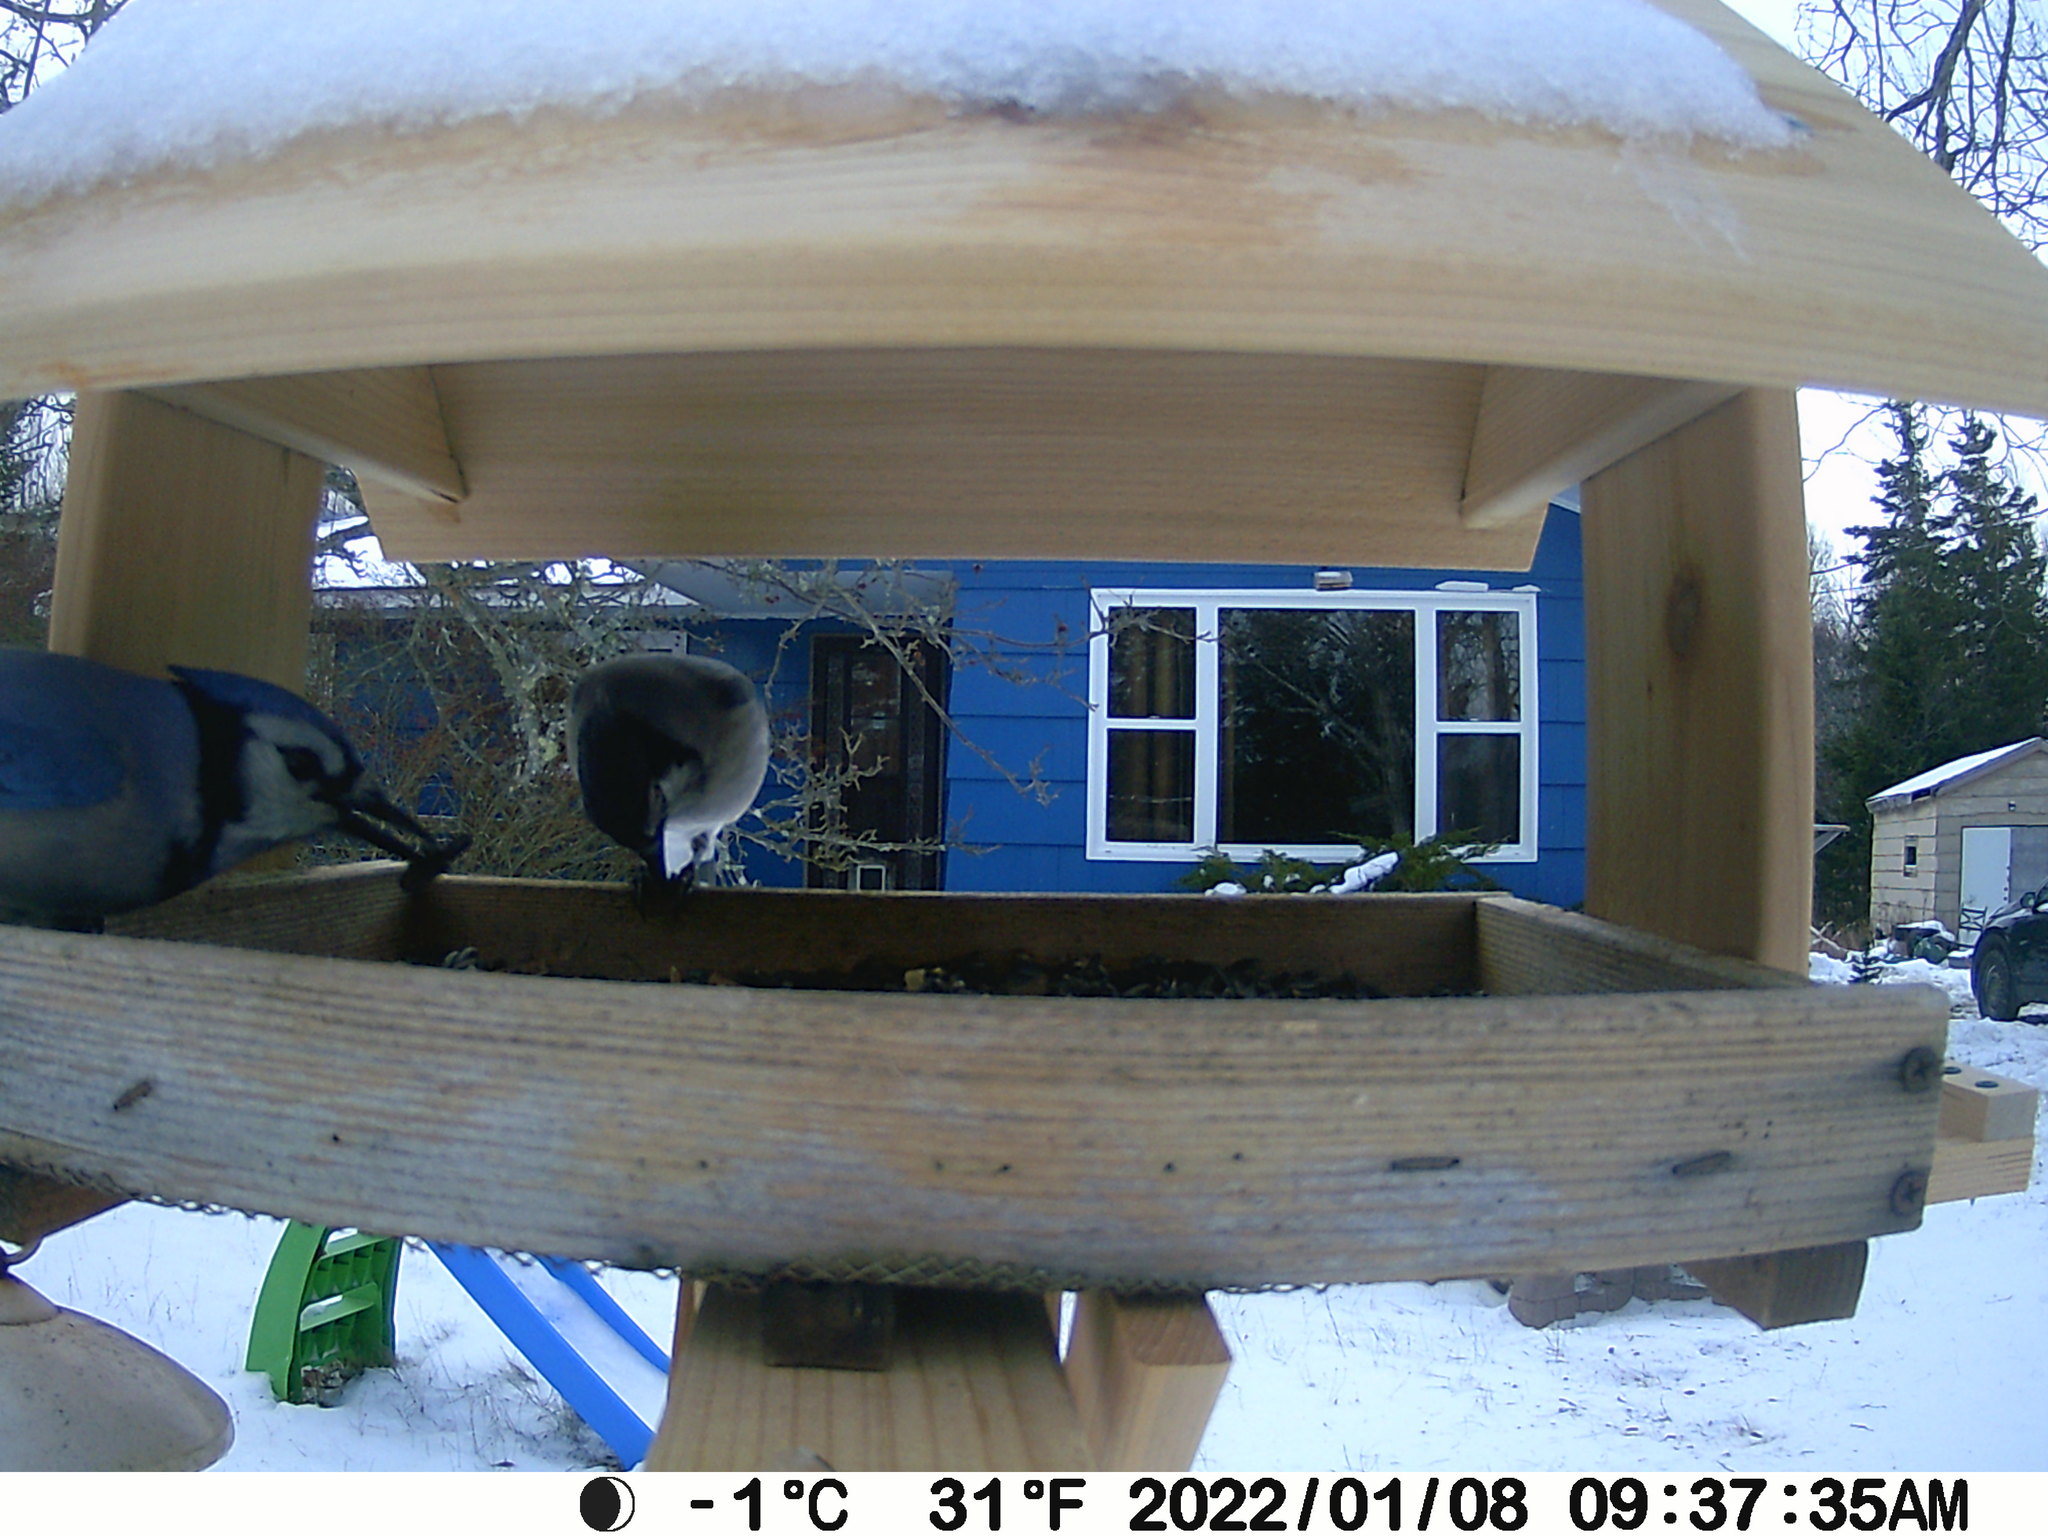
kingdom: Animalia
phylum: Chordata
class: Aves
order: Passeriformes
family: Corvidae
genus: Cyanocitta
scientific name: Cyanocitta cristata
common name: Blue jay
